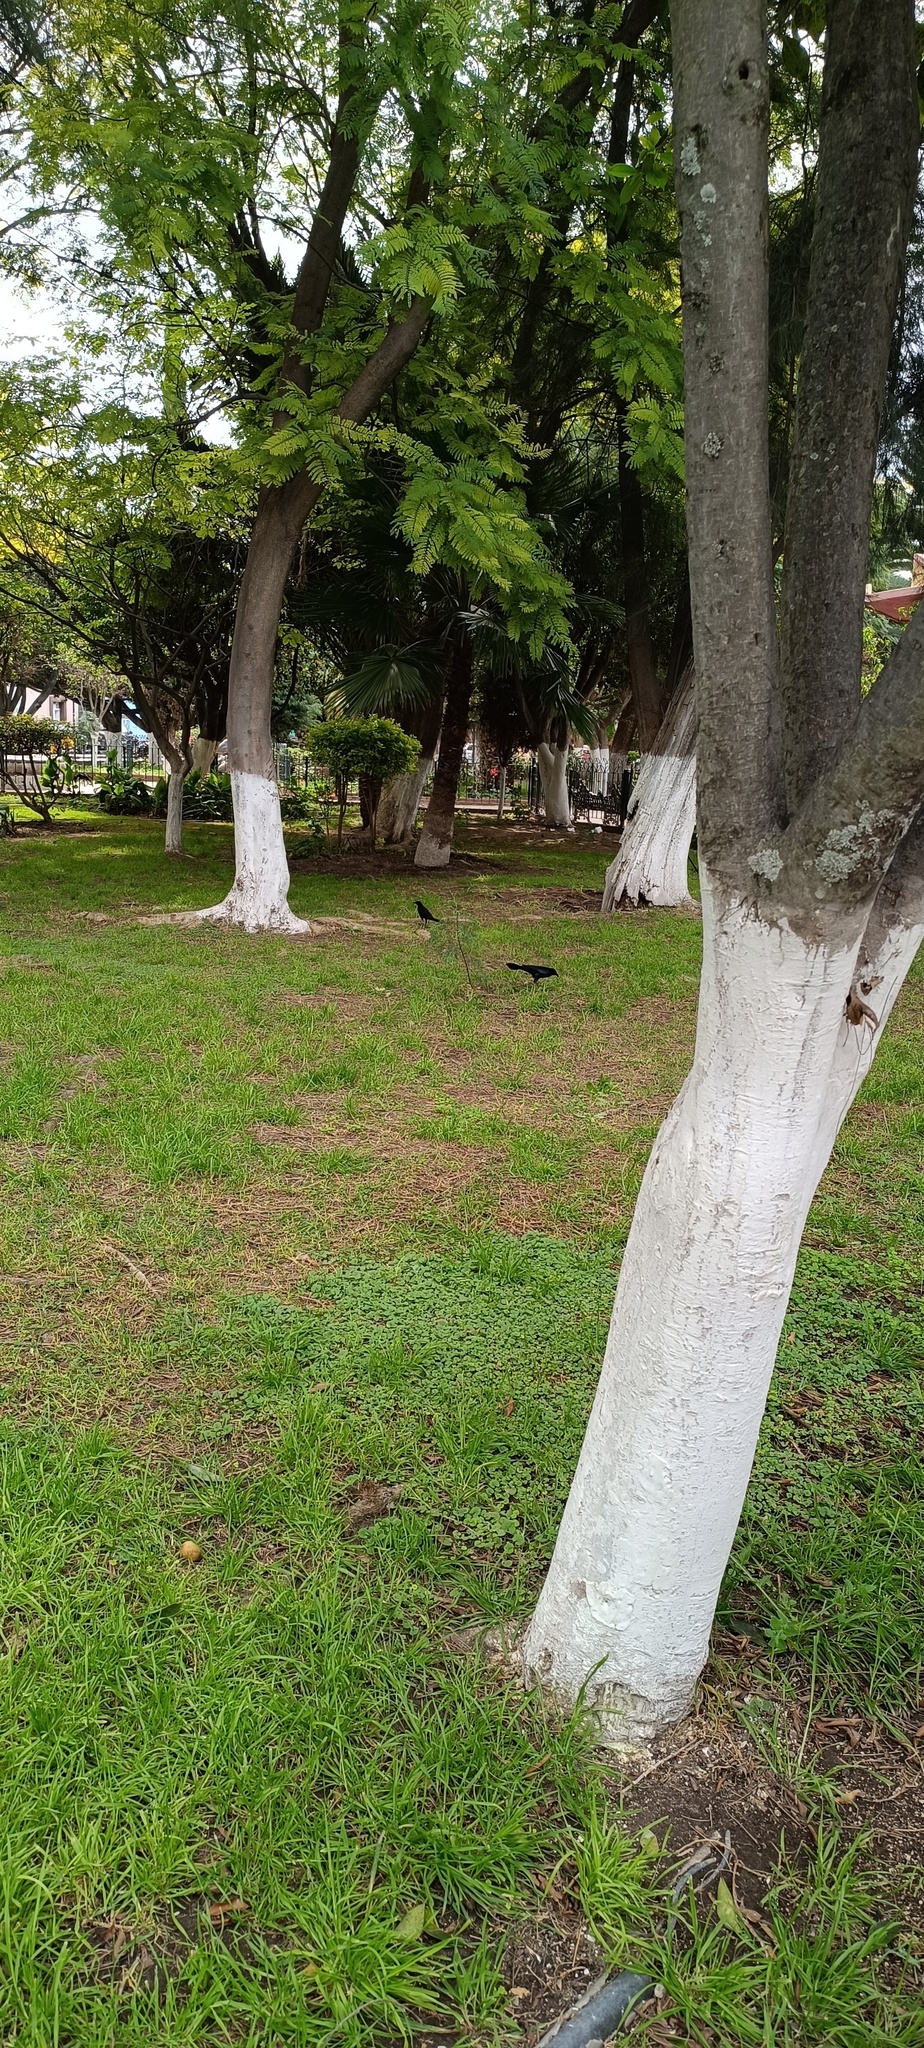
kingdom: Animalia
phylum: Chordata
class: Aves
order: Passeriformes
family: Icteridae
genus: Quiscalus
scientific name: Quiscalus mexicanus
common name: Great-tailed grackle
